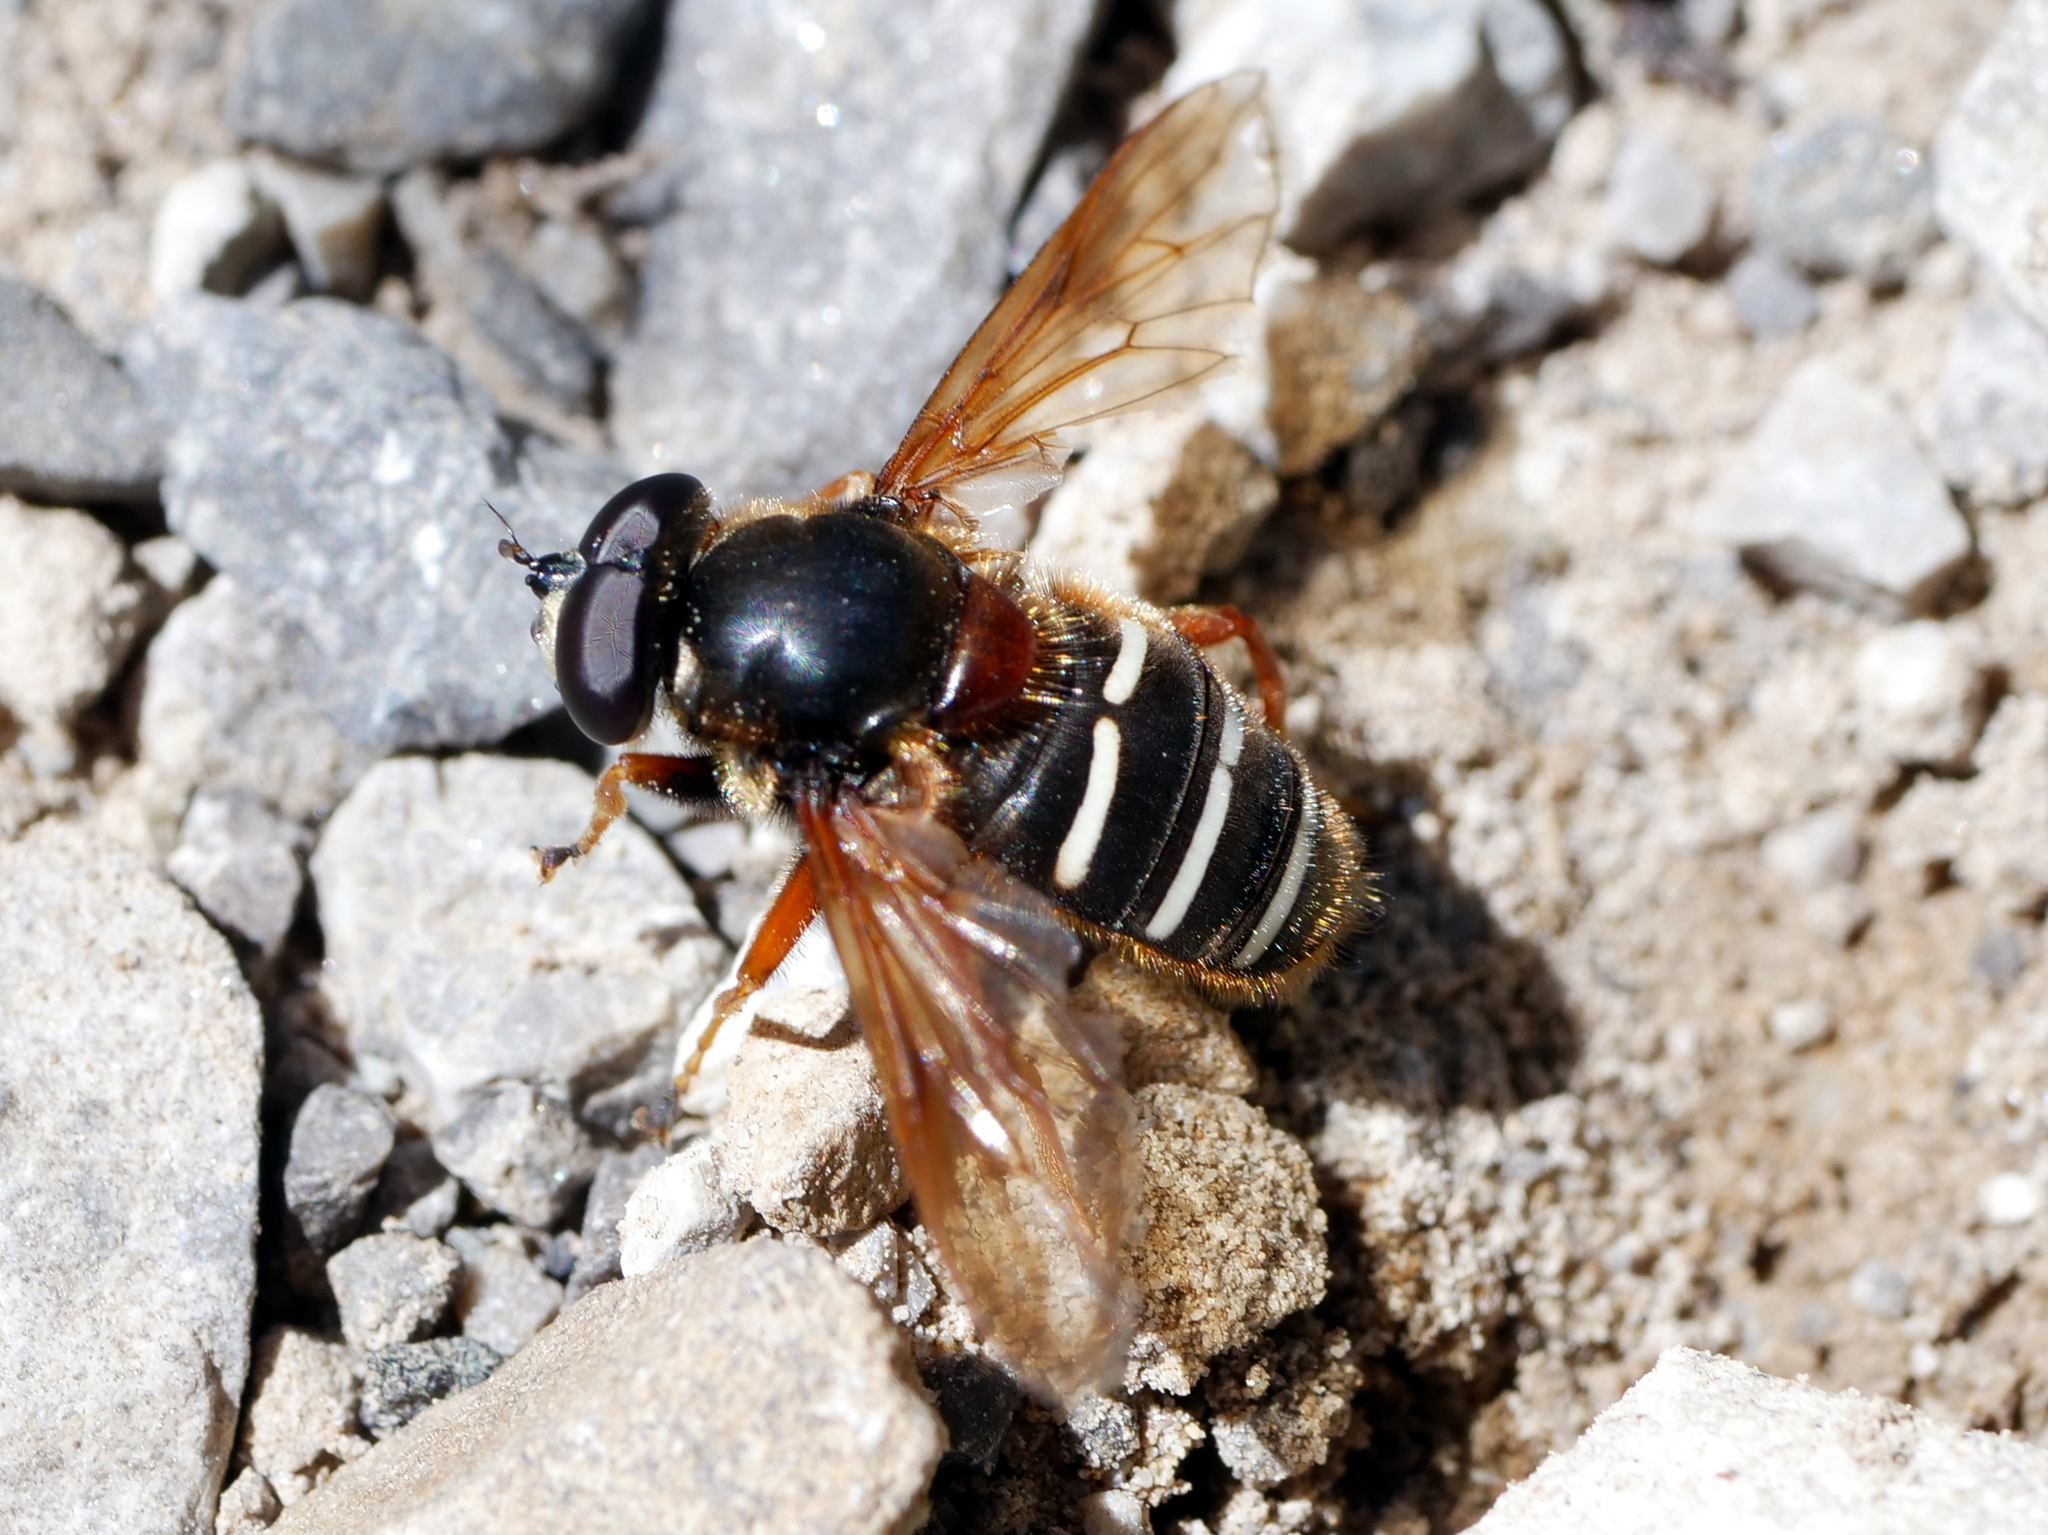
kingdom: Animalia
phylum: Arthropoda
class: Insecta
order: Diptera
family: Syrphidae
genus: Sericomyia
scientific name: Sericomyia lappona
